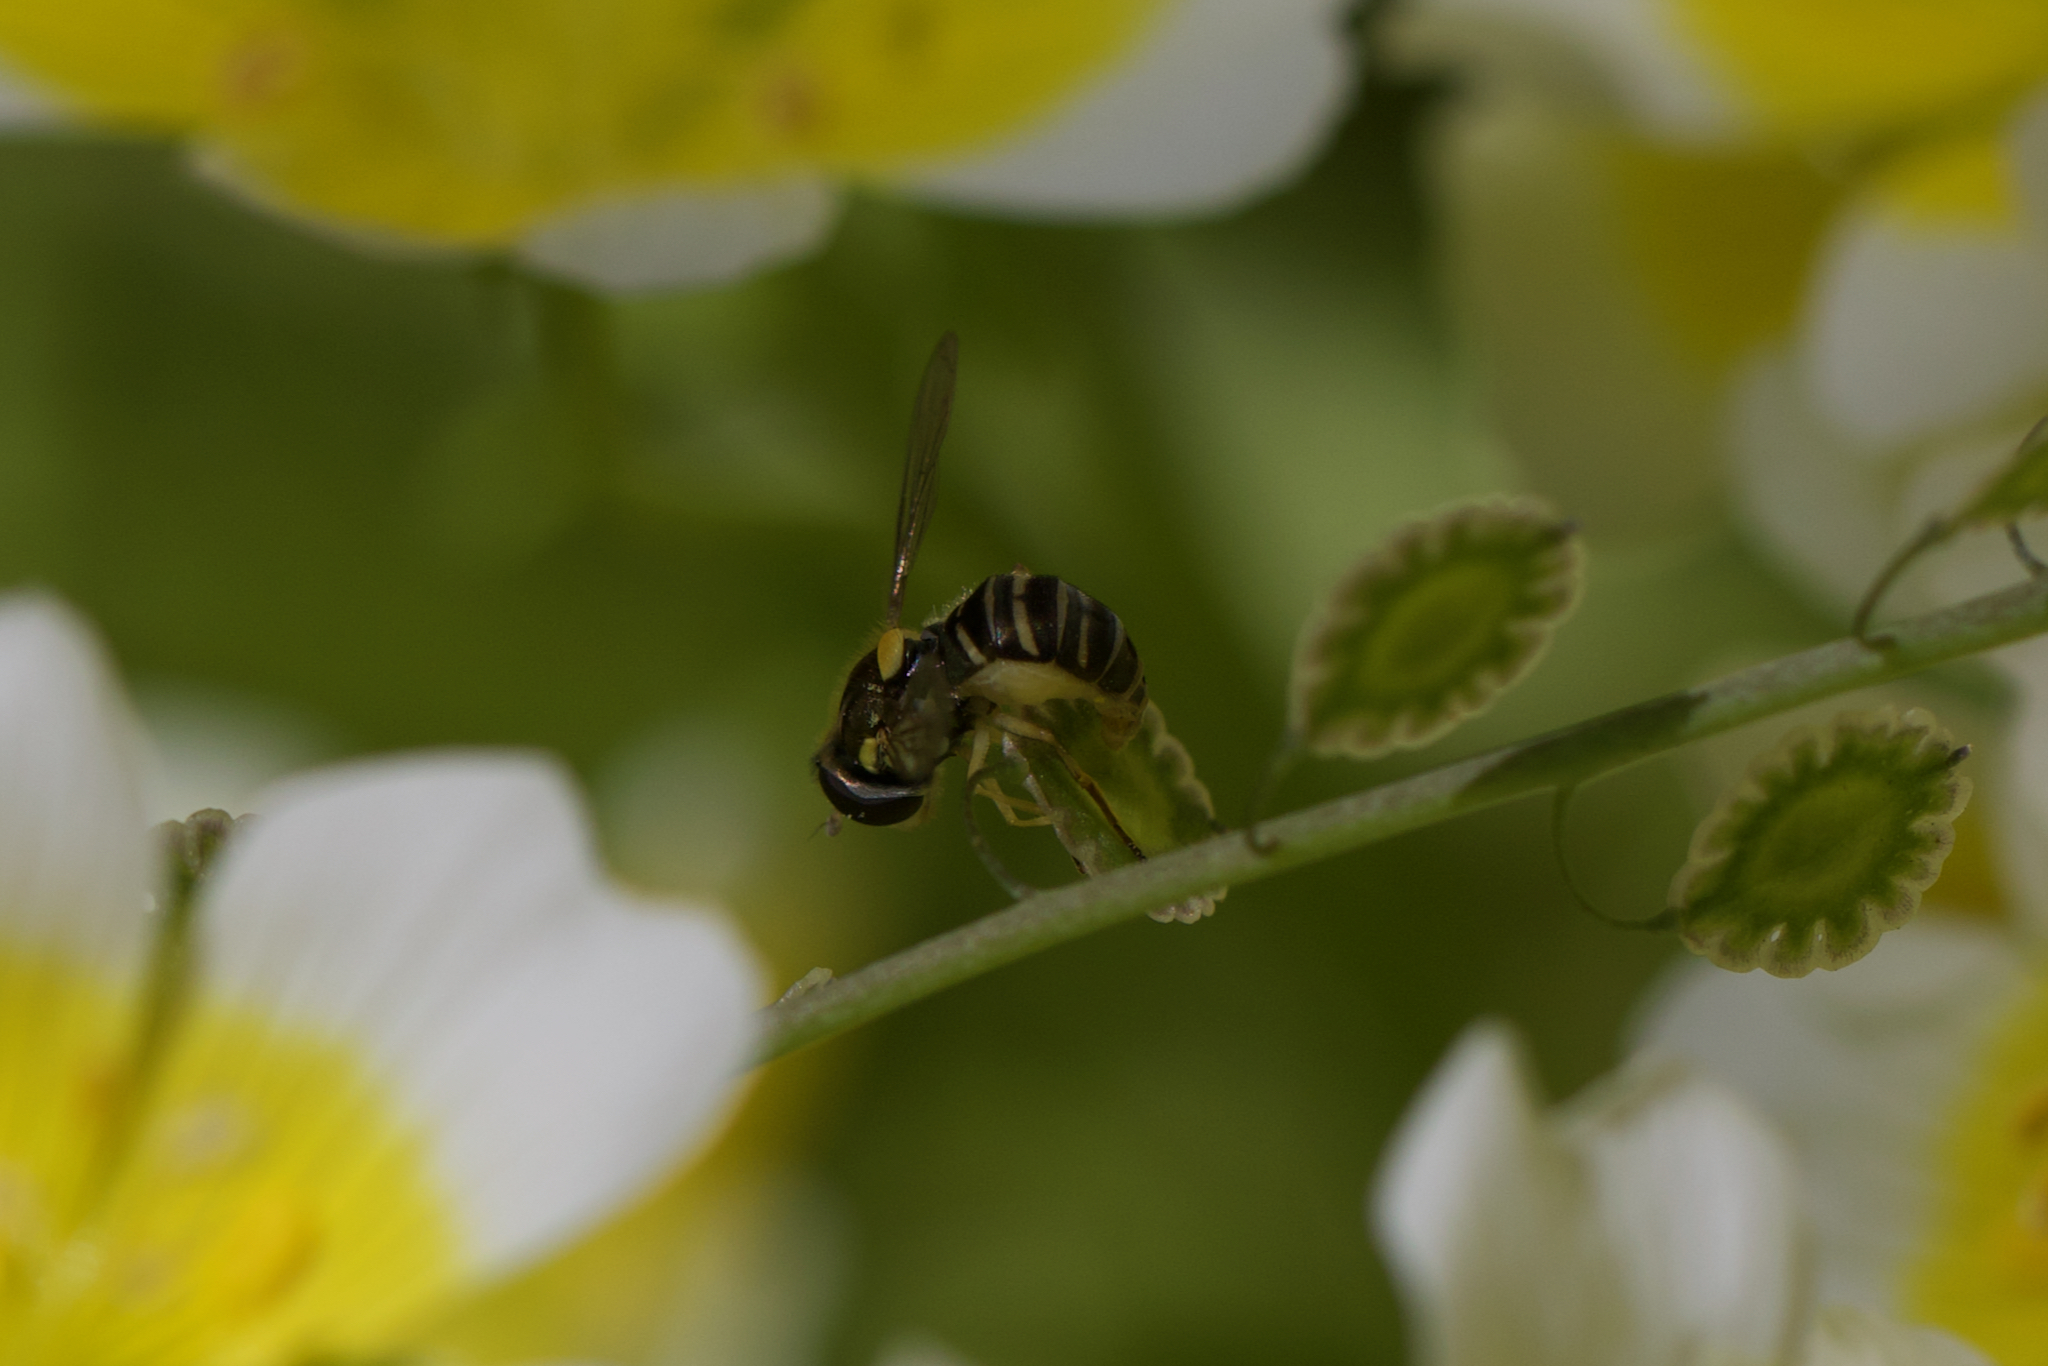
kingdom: Animalia
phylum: Arthropoda
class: Insecta
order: Diptera
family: Syrphidae
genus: Sphaerophoria
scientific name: Sphaerophoria sulphuripes
